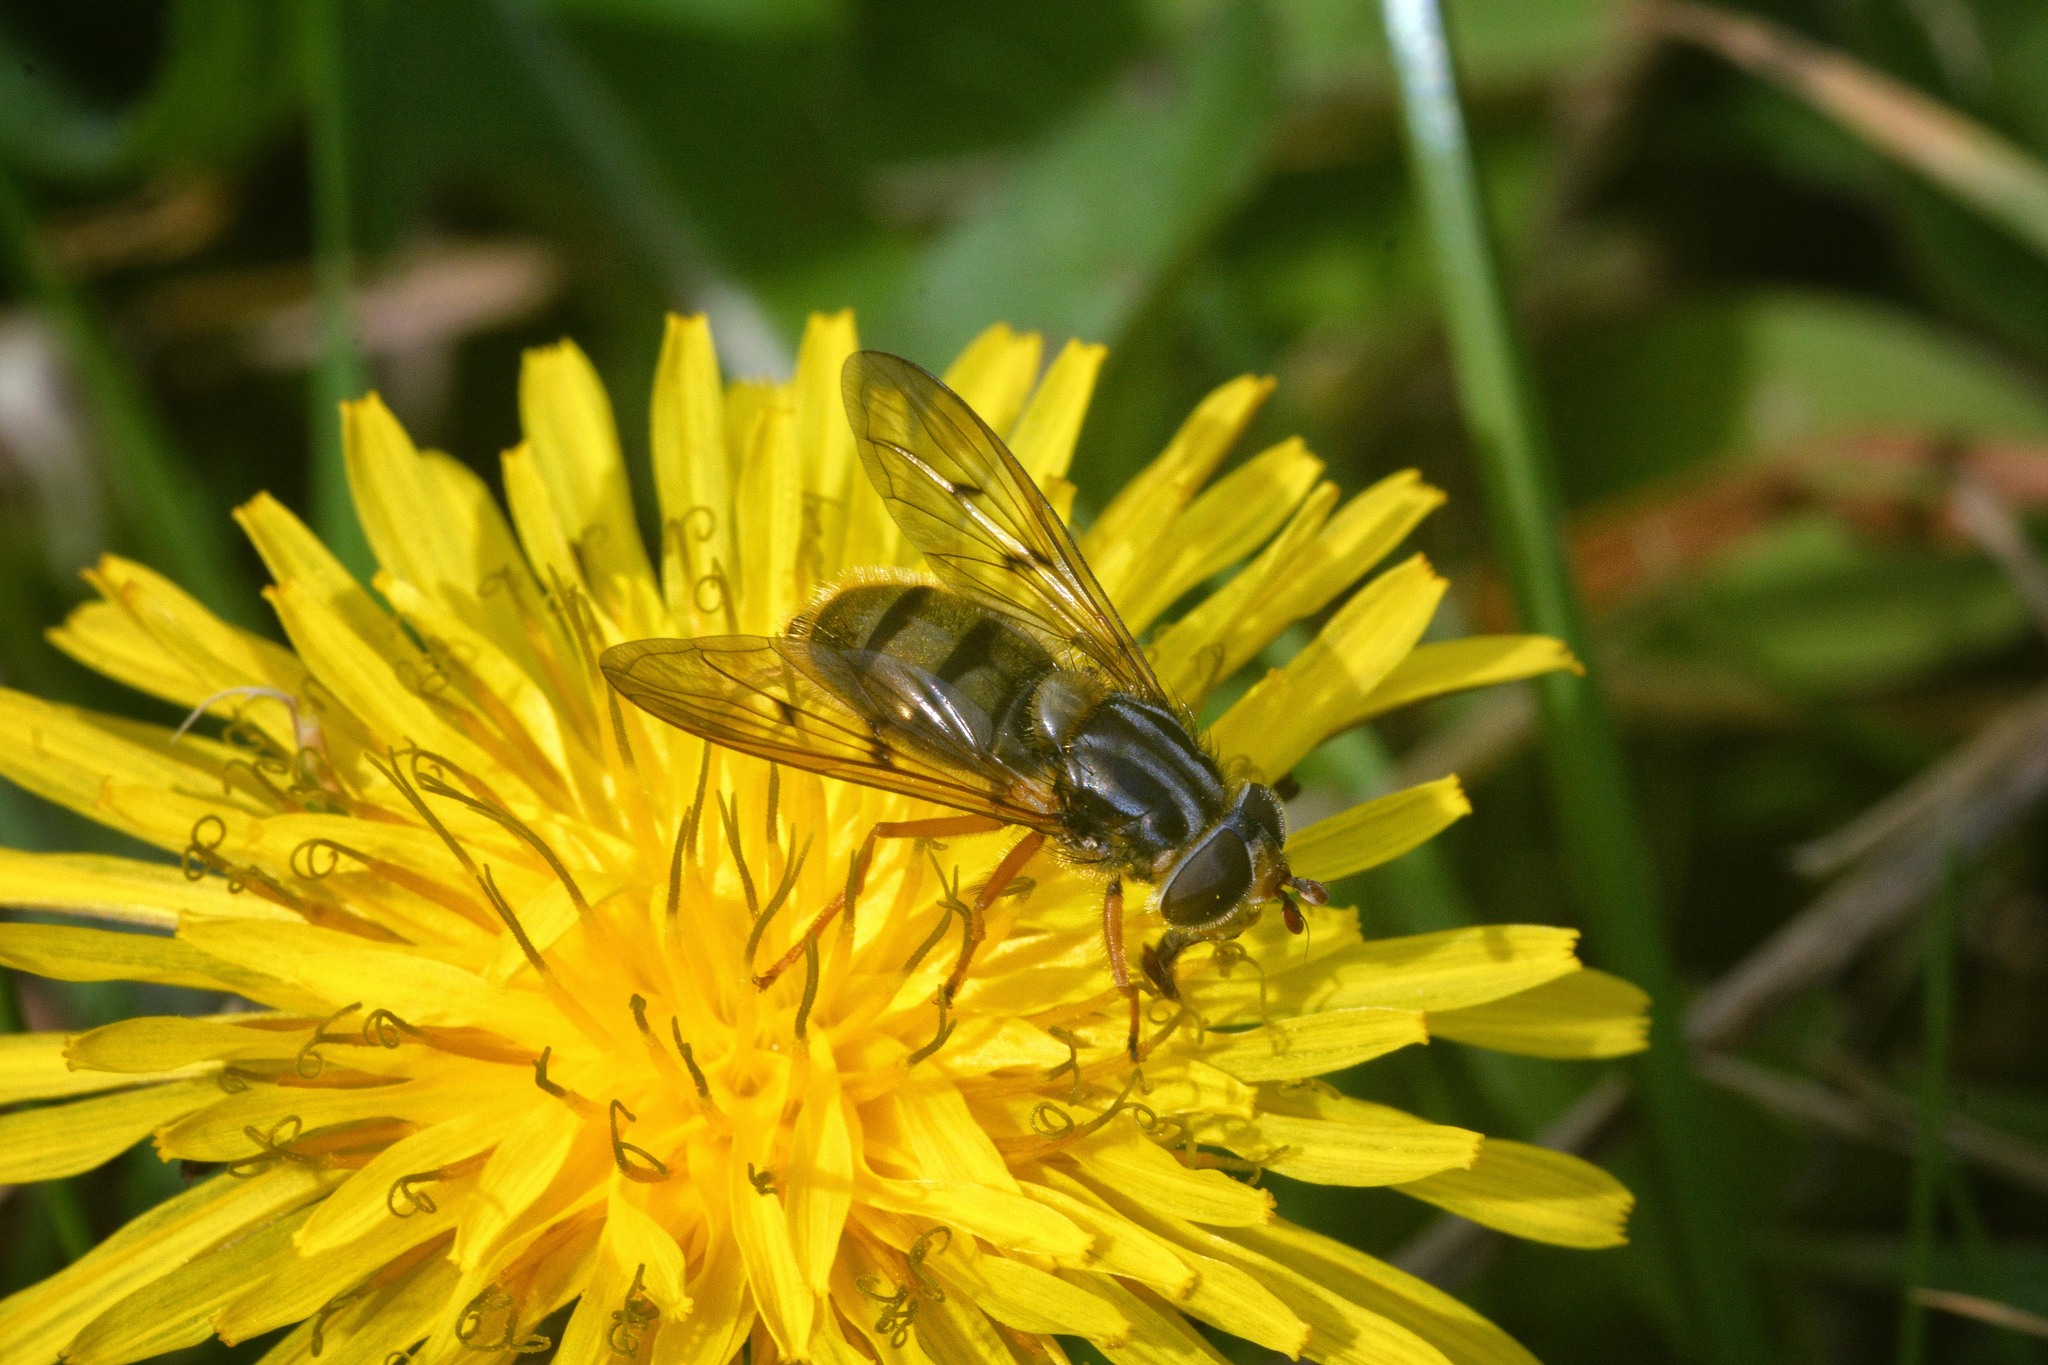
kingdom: Animalia
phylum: Arthropoda
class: Insecta
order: Diptera
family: Syrphidae
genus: Ferdinandea
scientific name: Ferdinandea cuprea
